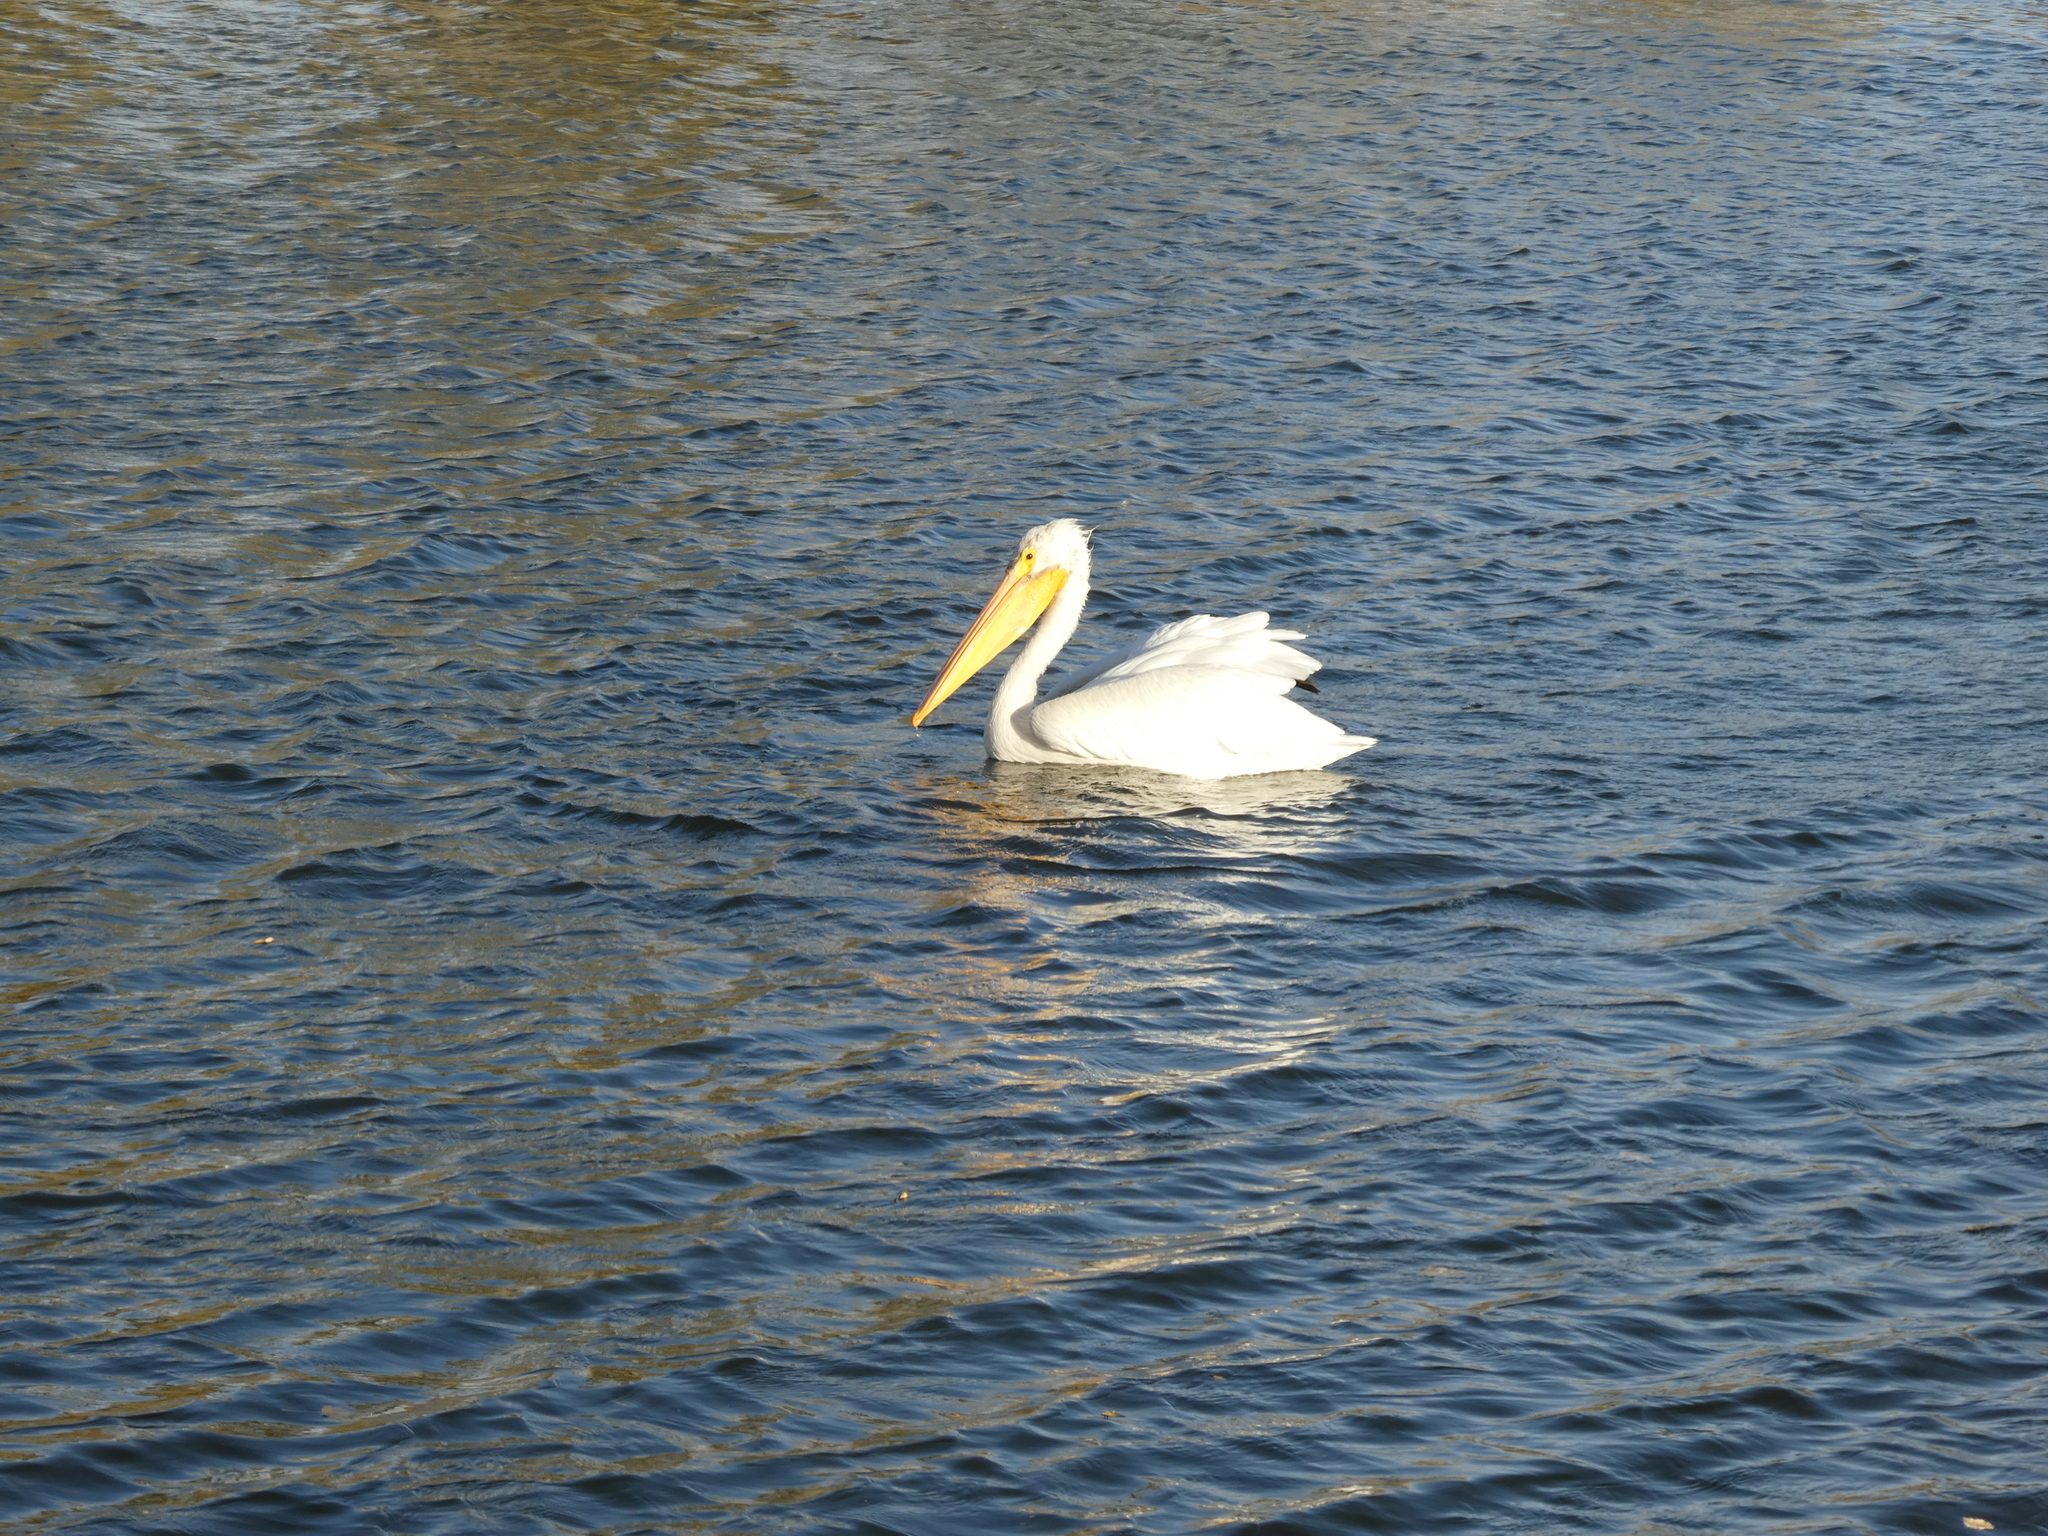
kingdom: Animalia
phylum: Chordata
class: Aves
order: Pelecaniformes
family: Pelecanidae
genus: Pelecanus
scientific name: Pelecanus erythrorhynchos
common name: American white pelican
